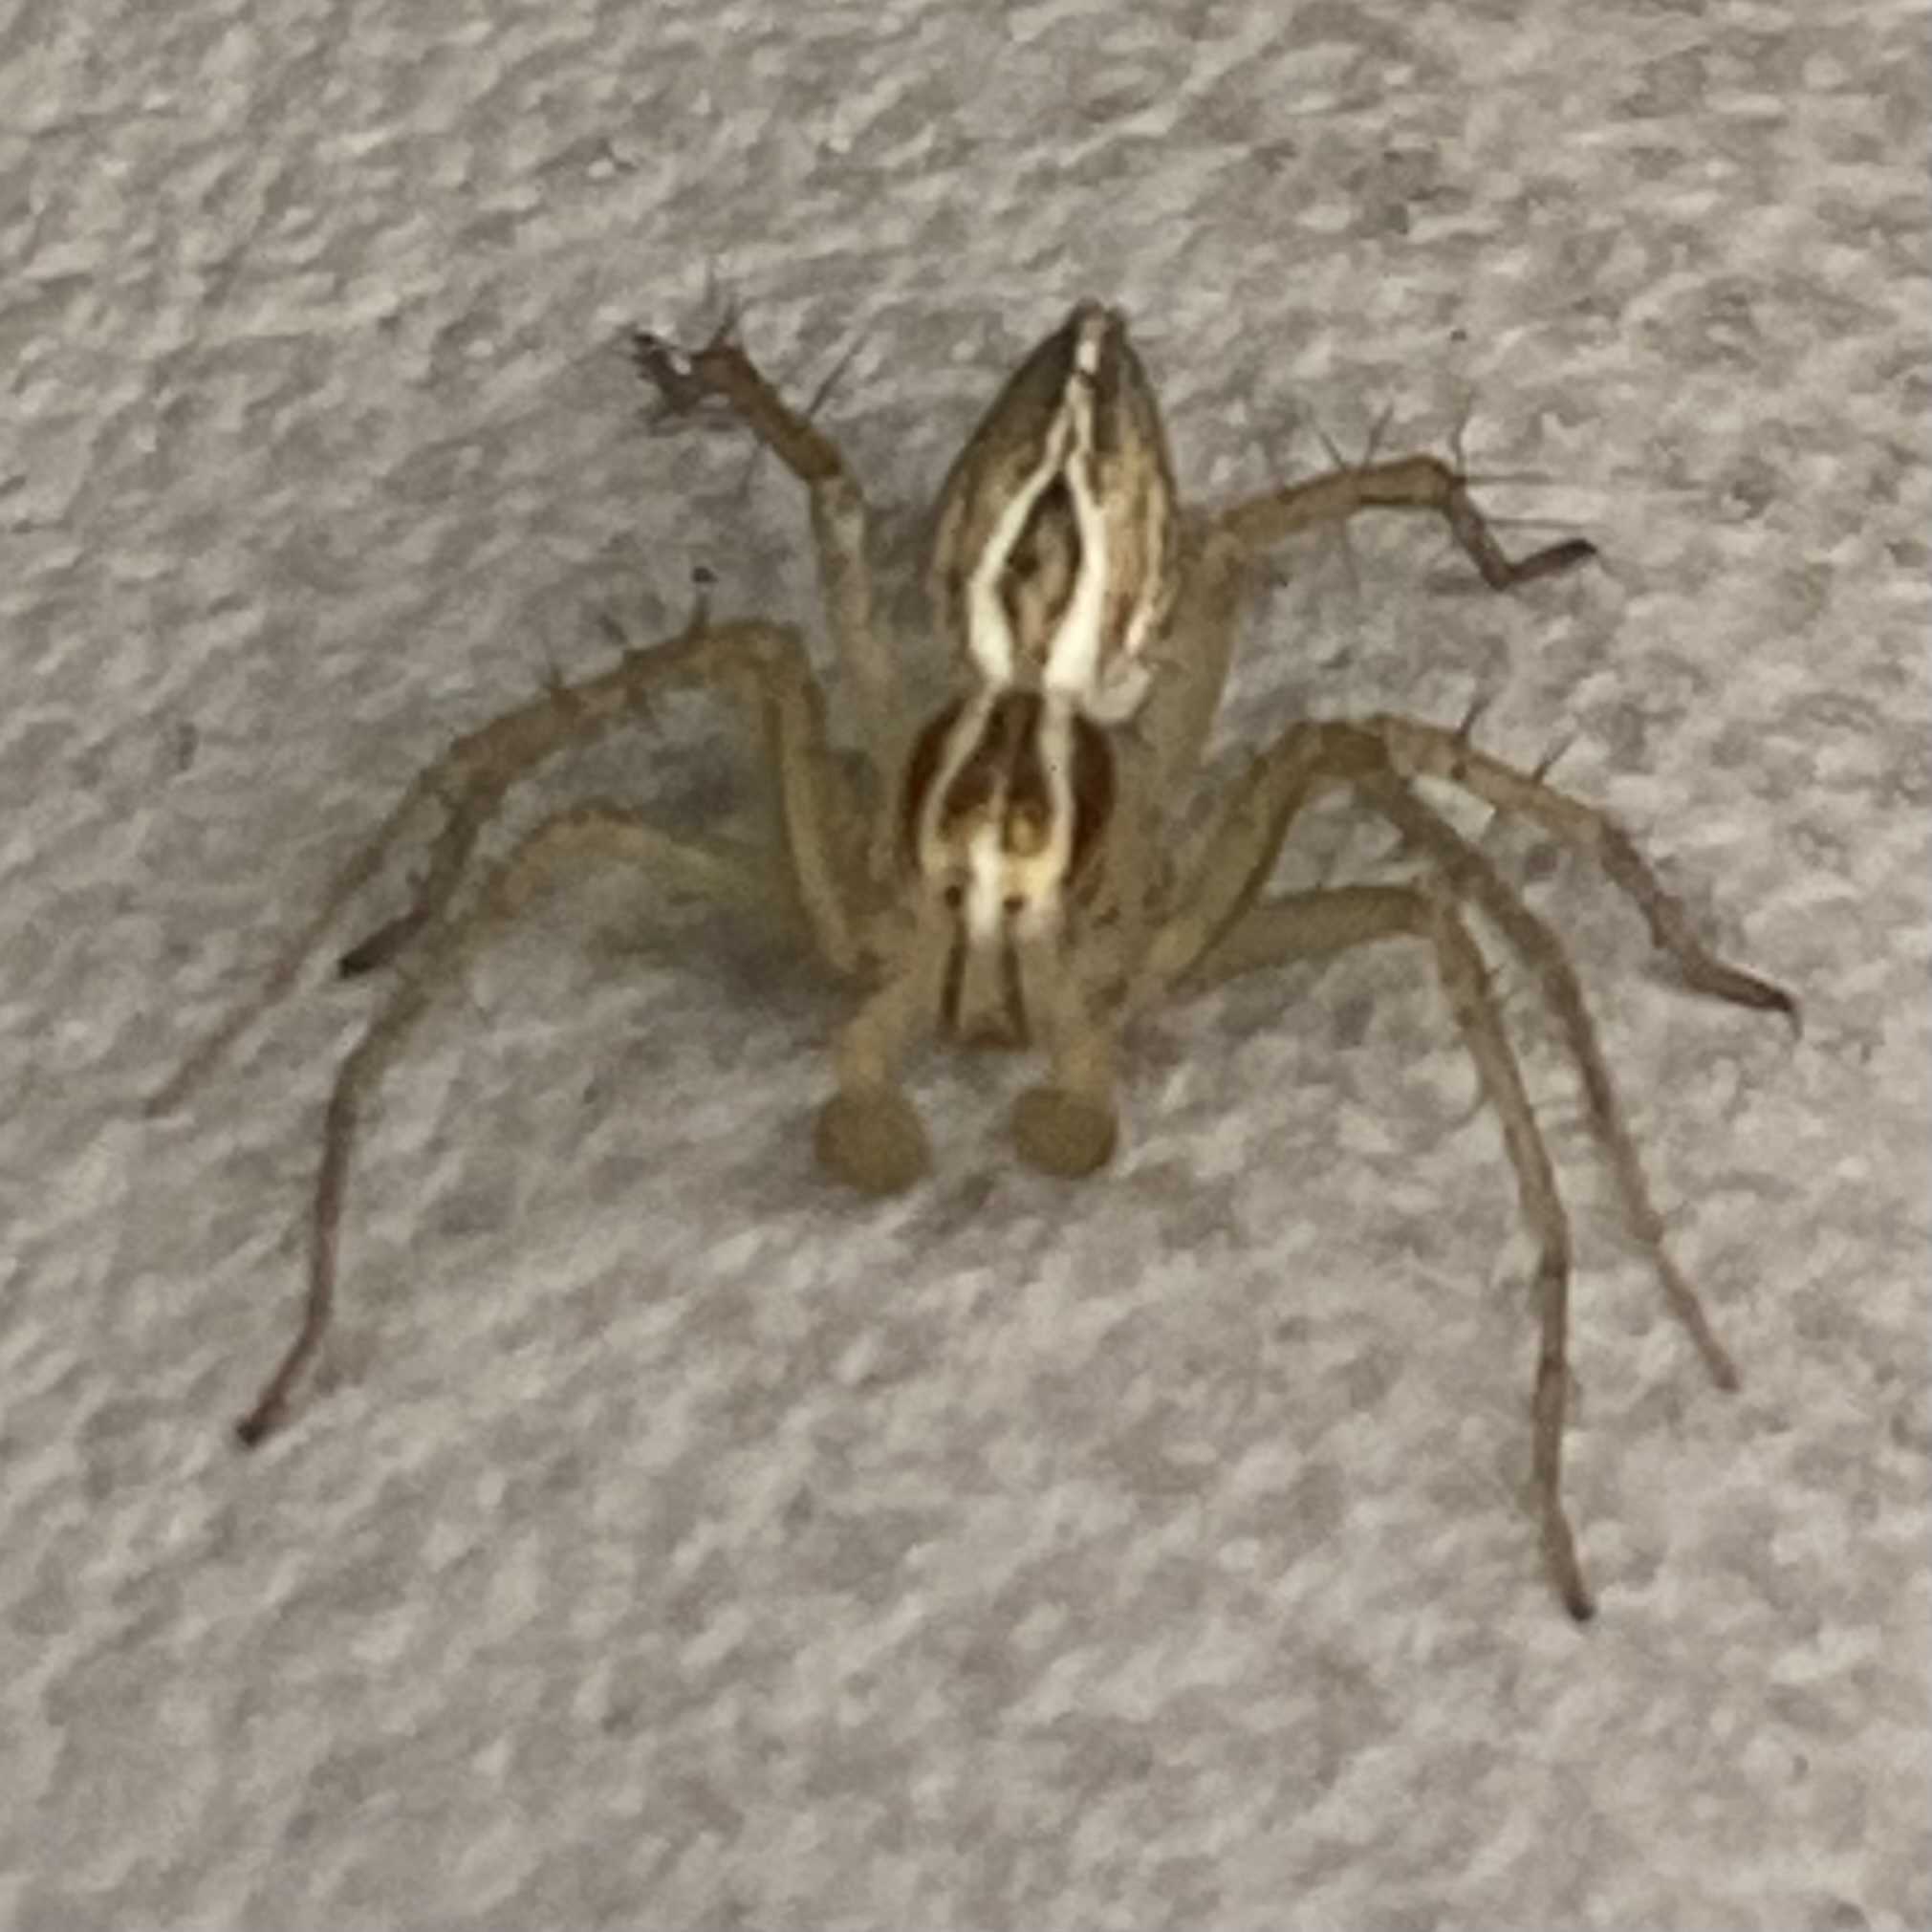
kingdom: Animalia
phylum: Arthropoda
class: Arachnida
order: Araneae
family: Oxyopidae
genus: Oxyopes
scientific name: Oxyopes salticus
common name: Lynx spiders
